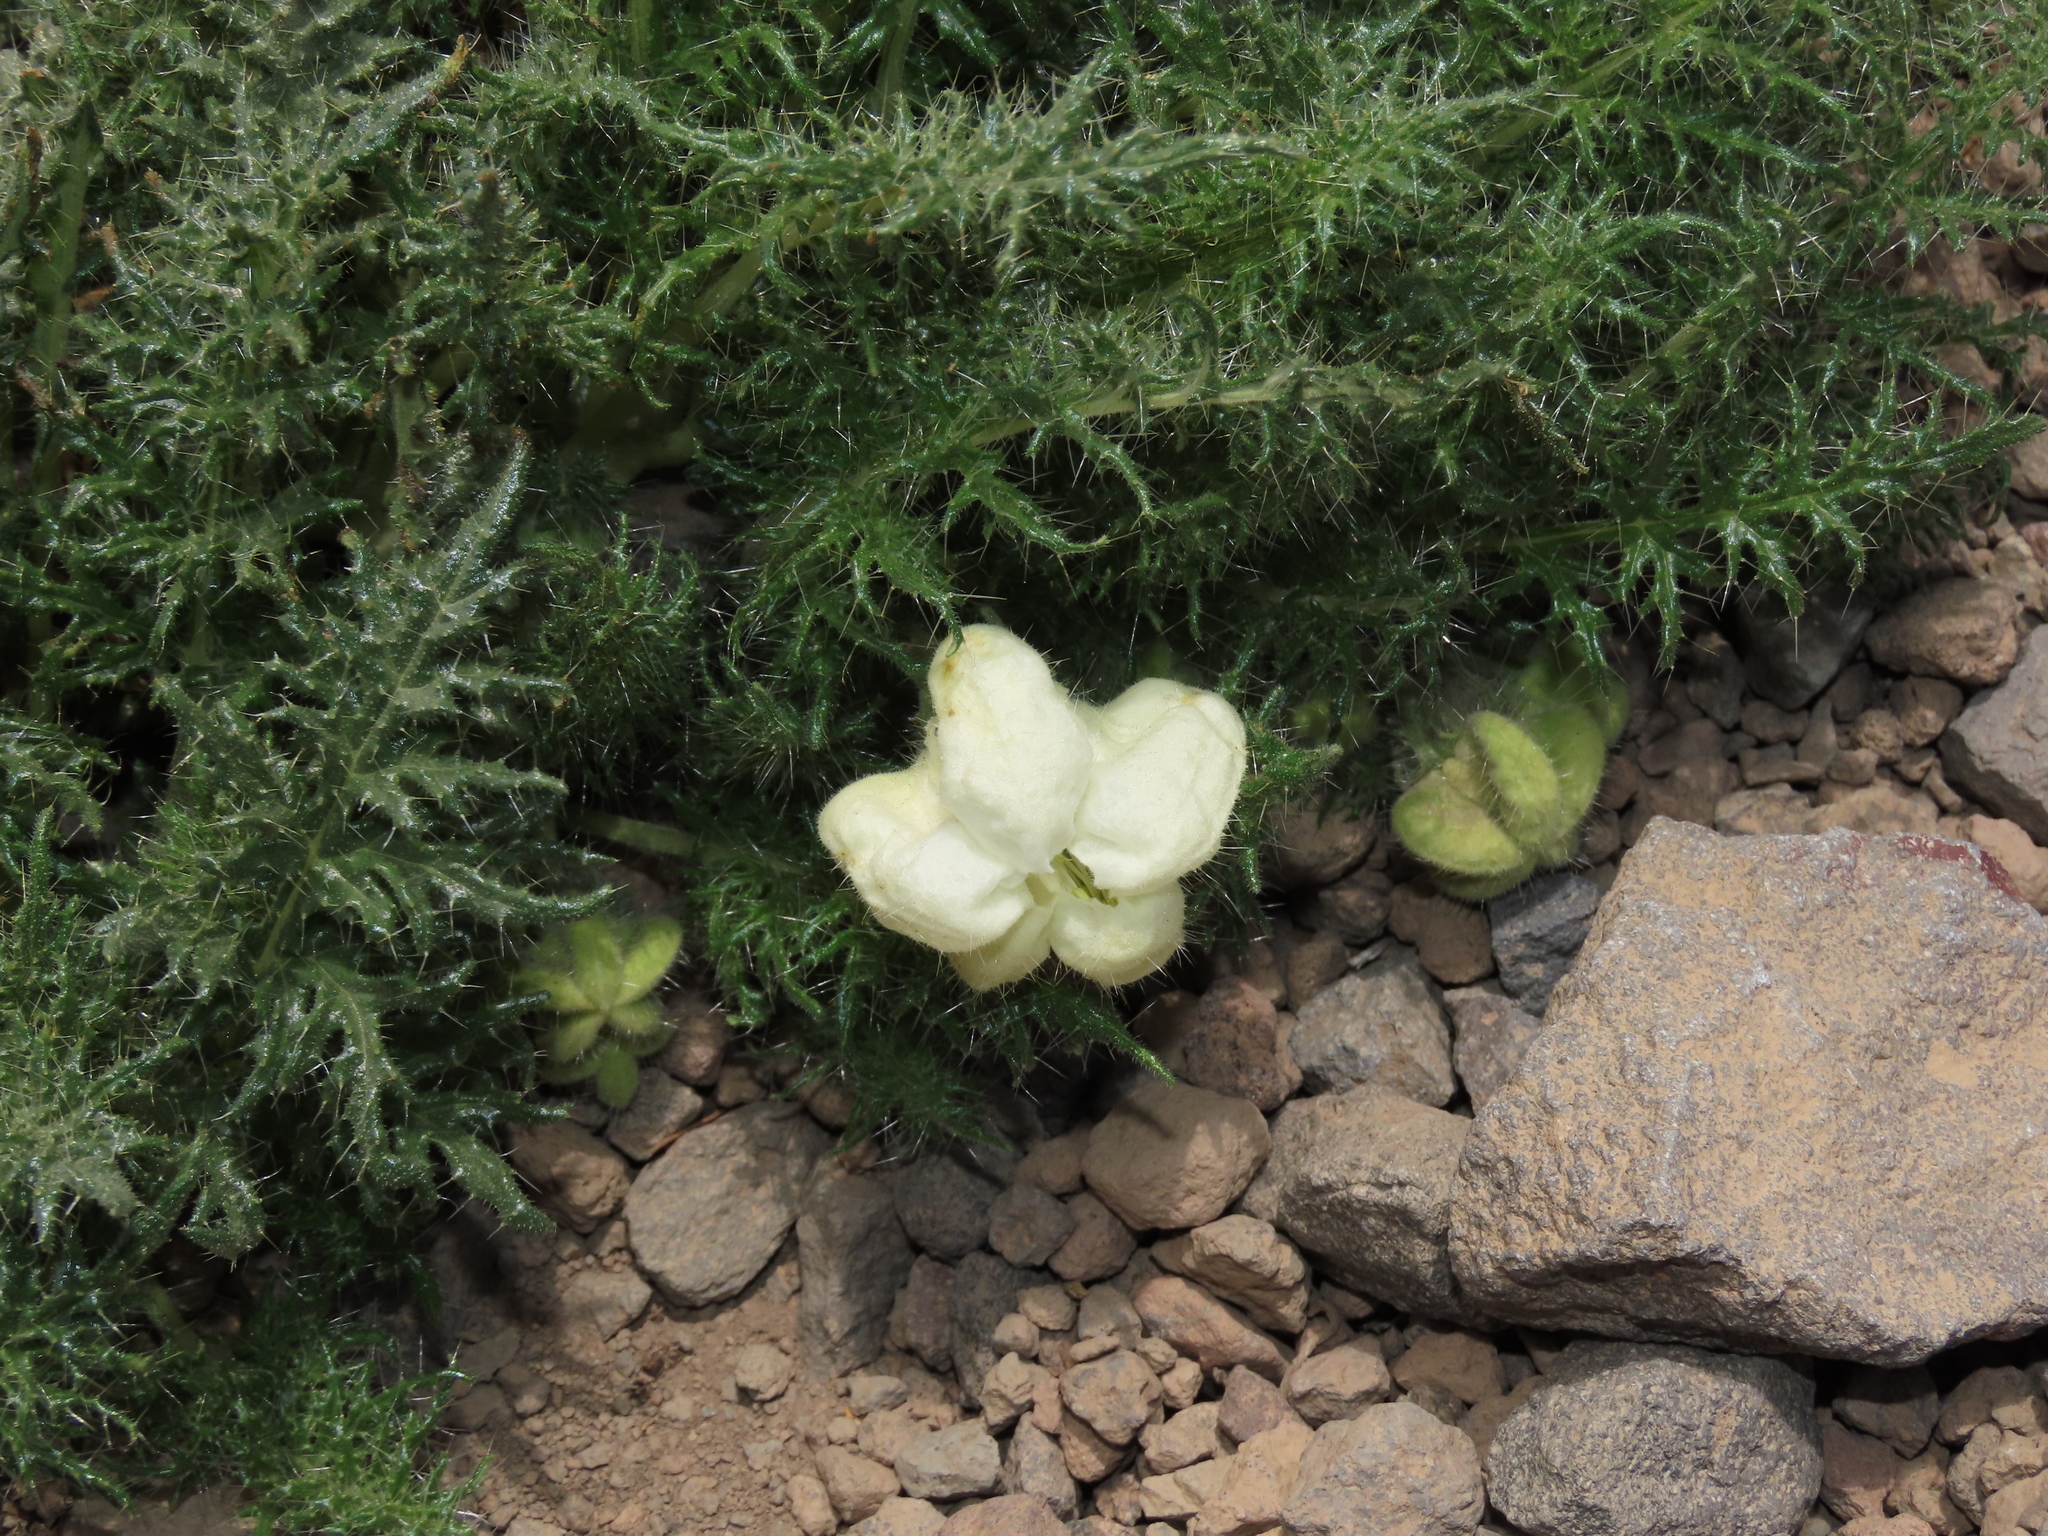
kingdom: Plantae
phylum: Tracheophyta
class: Magnoliopsida
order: Cornales
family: Loasaceae
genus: Caiophora
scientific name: Caiophora coronata
